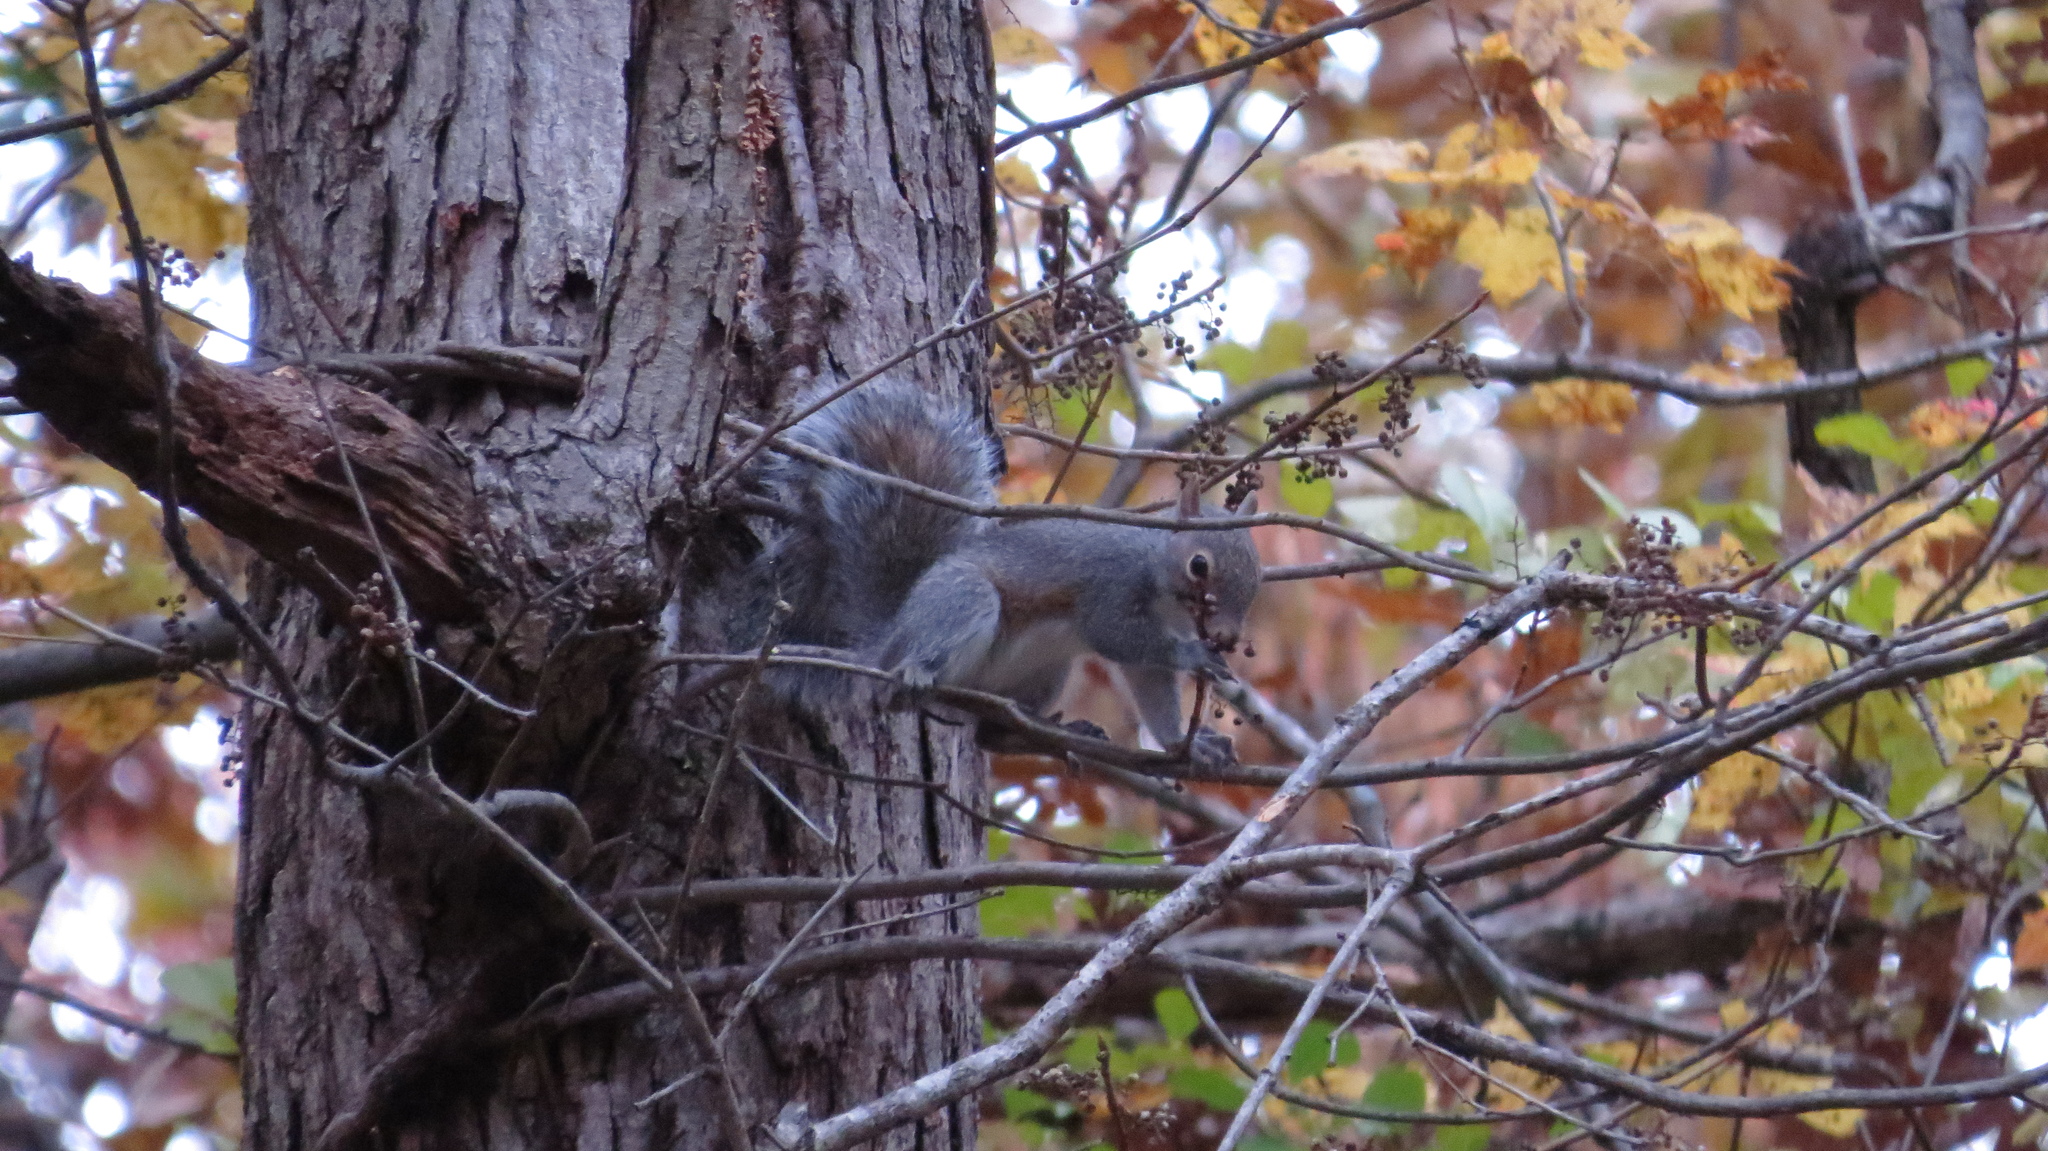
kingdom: Animalia
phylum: Chordata
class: Mammalia
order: Rodentia
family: Sciuridae
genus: Sciurus
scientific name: Sciurus carolinensis
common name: Eastern gray squirrel
